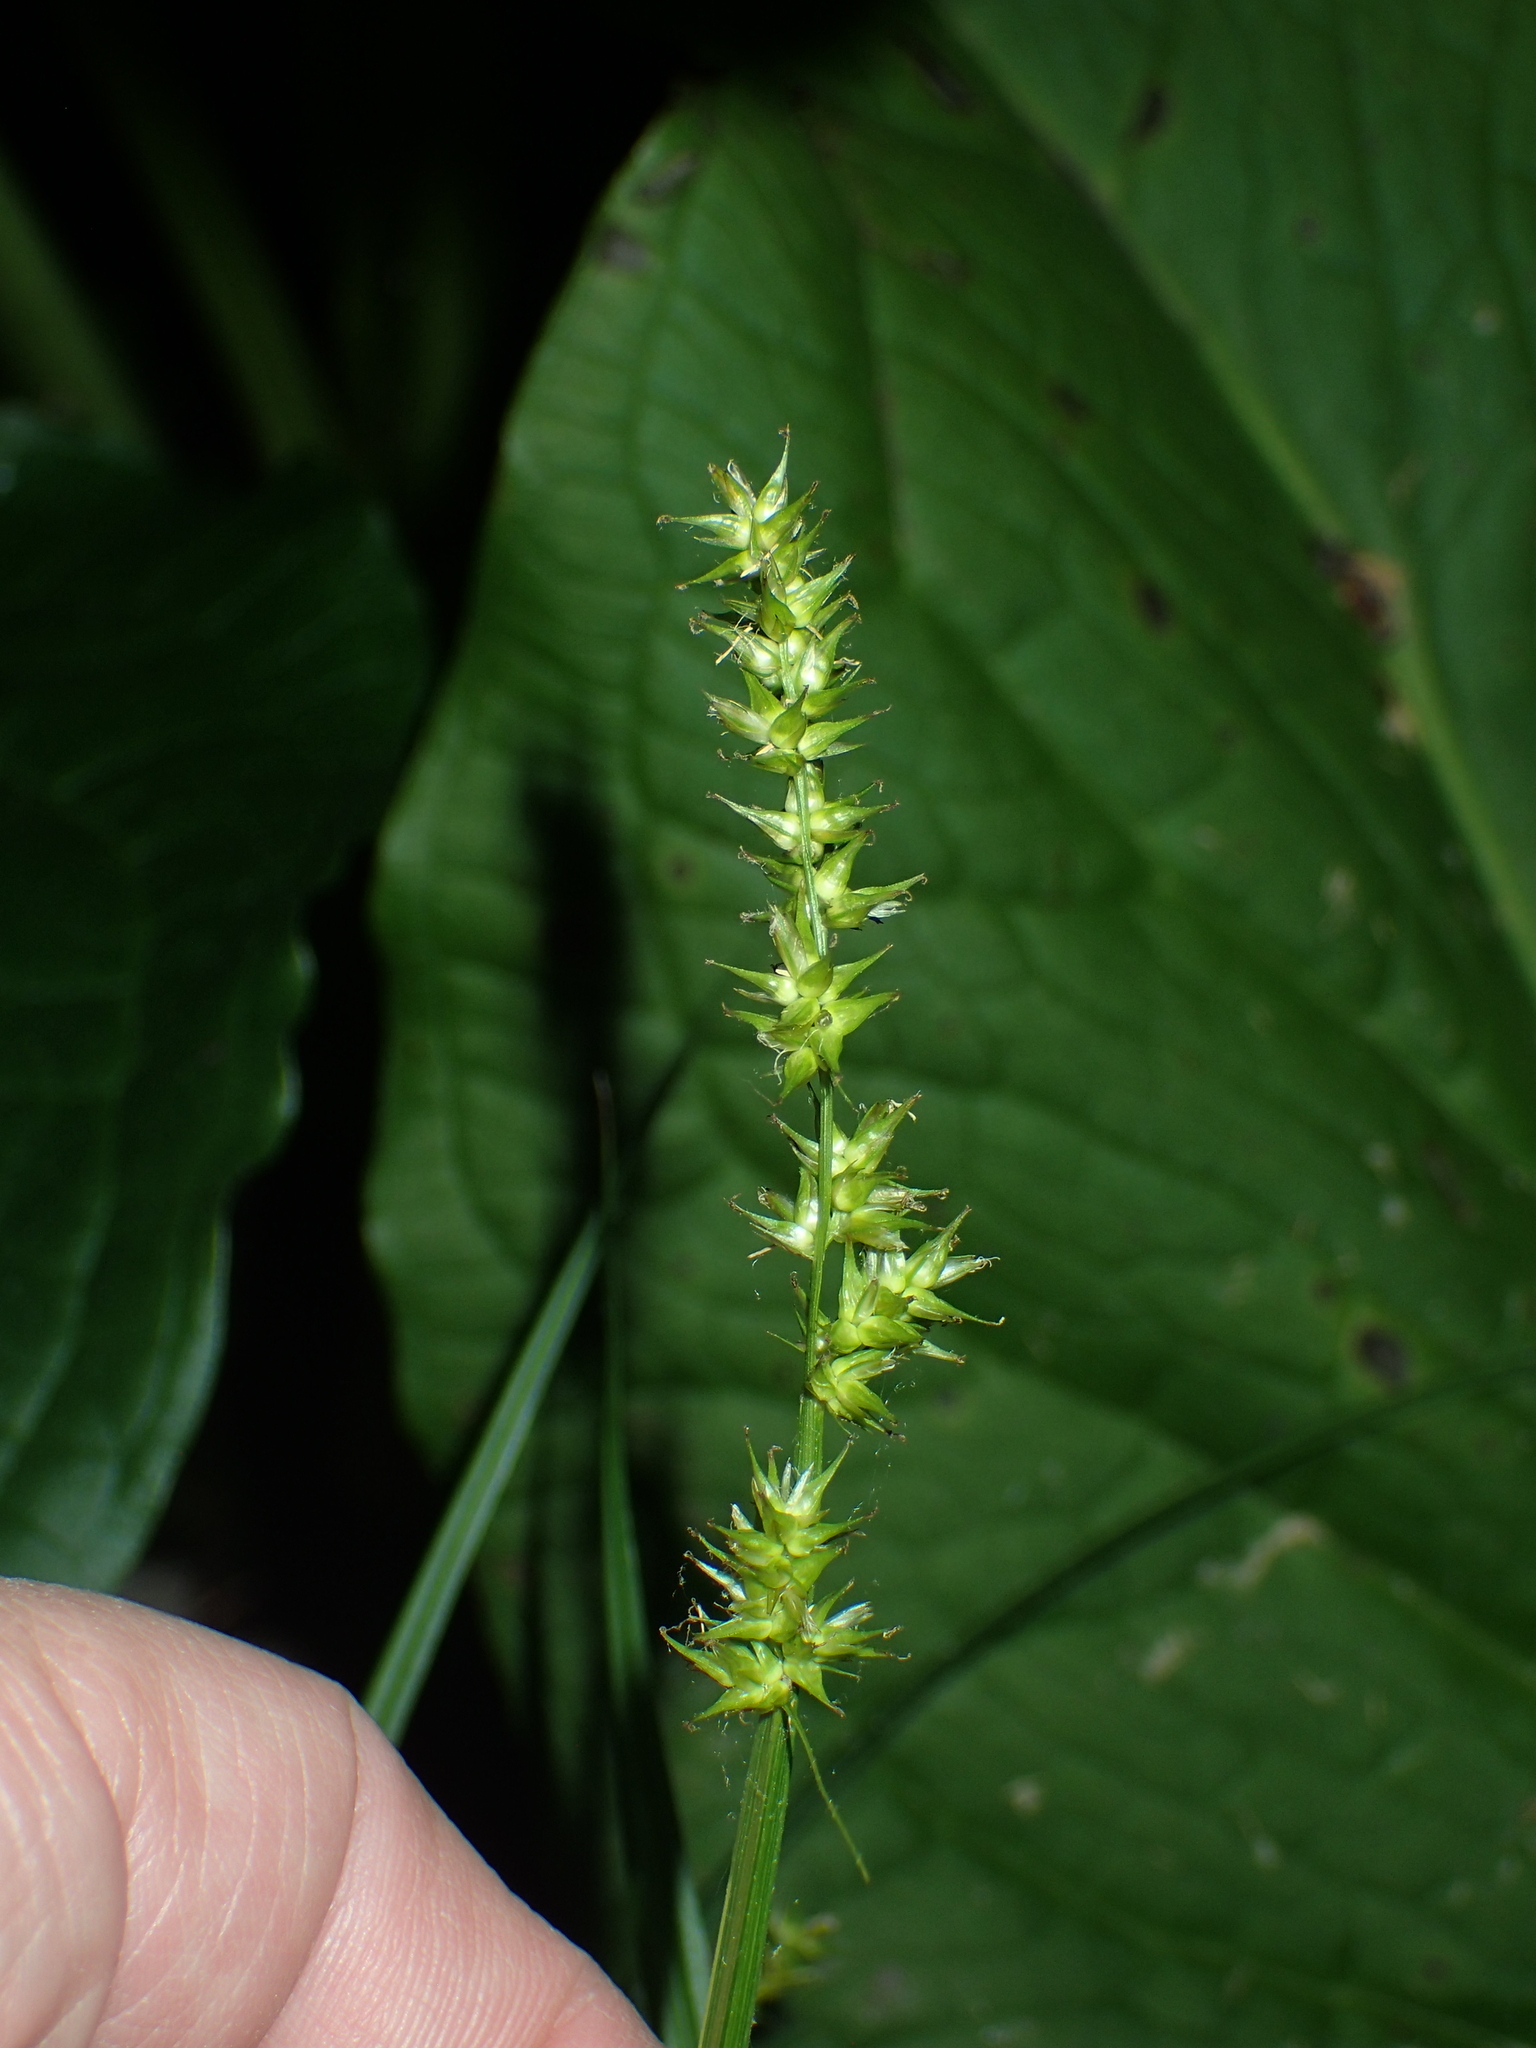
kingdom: Plantae
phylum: Tracheophyta
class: Liliopsida
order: Poales
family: Cyperaceae
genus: Carex
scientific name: Carex stipata
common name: Awl-fruited sedge
